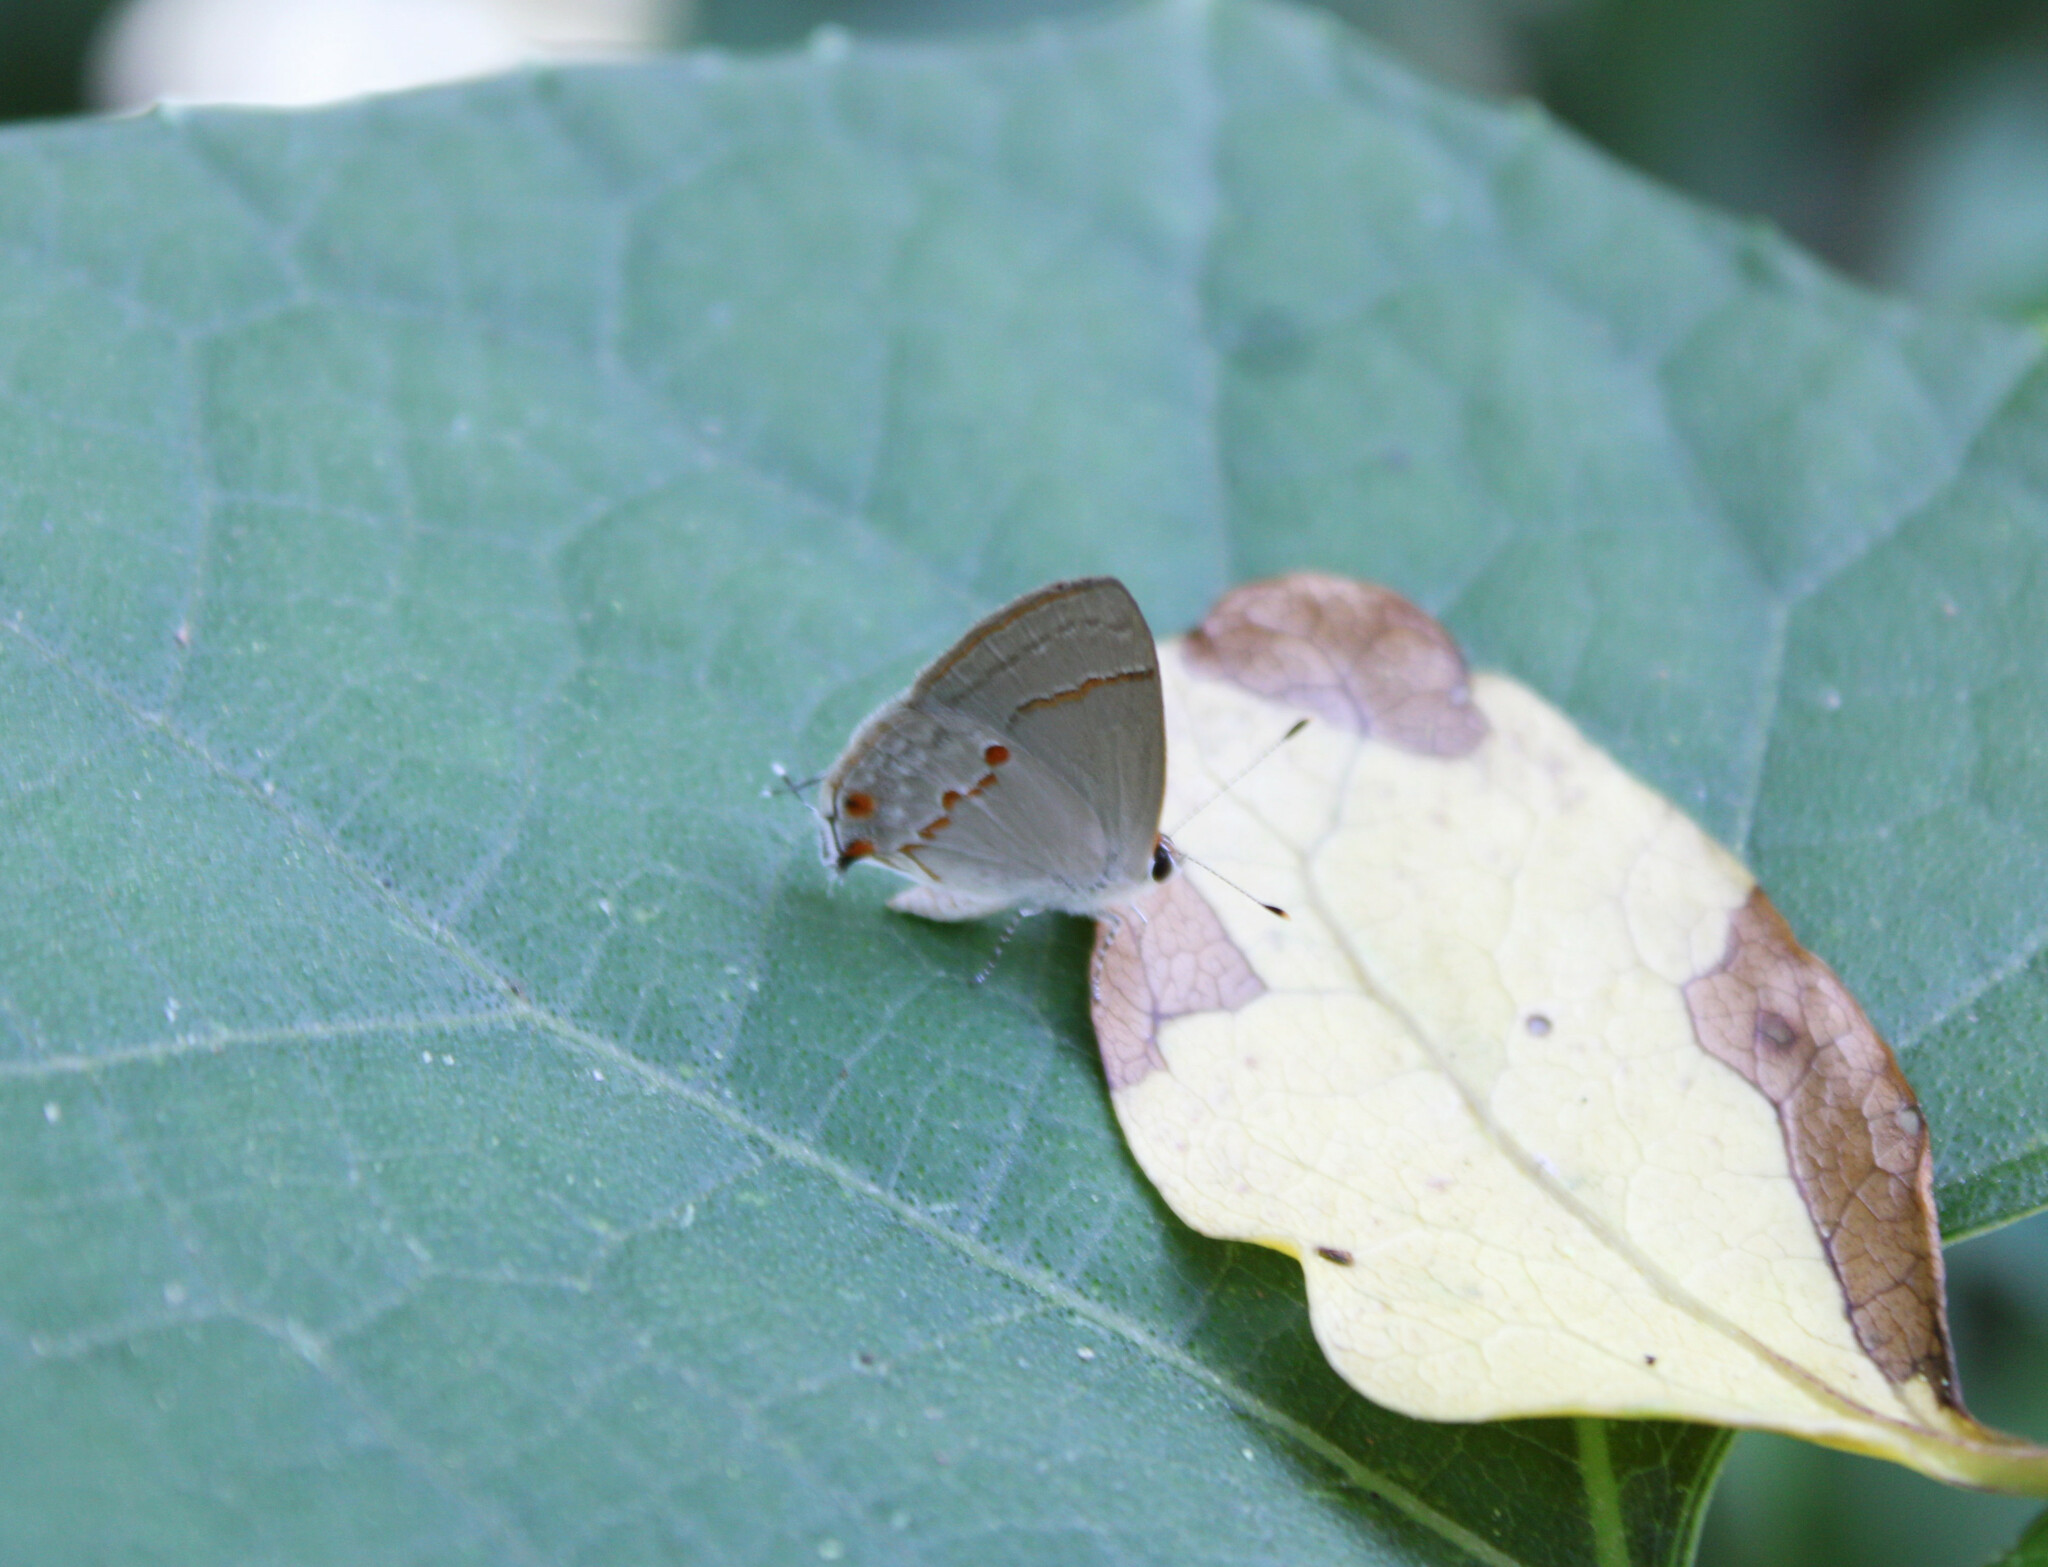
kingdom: Animalia
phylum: Arthropoda
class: Insecta
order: Lepidoptera
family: Lycaenidae
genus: Thecla
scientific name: Thecla azia
